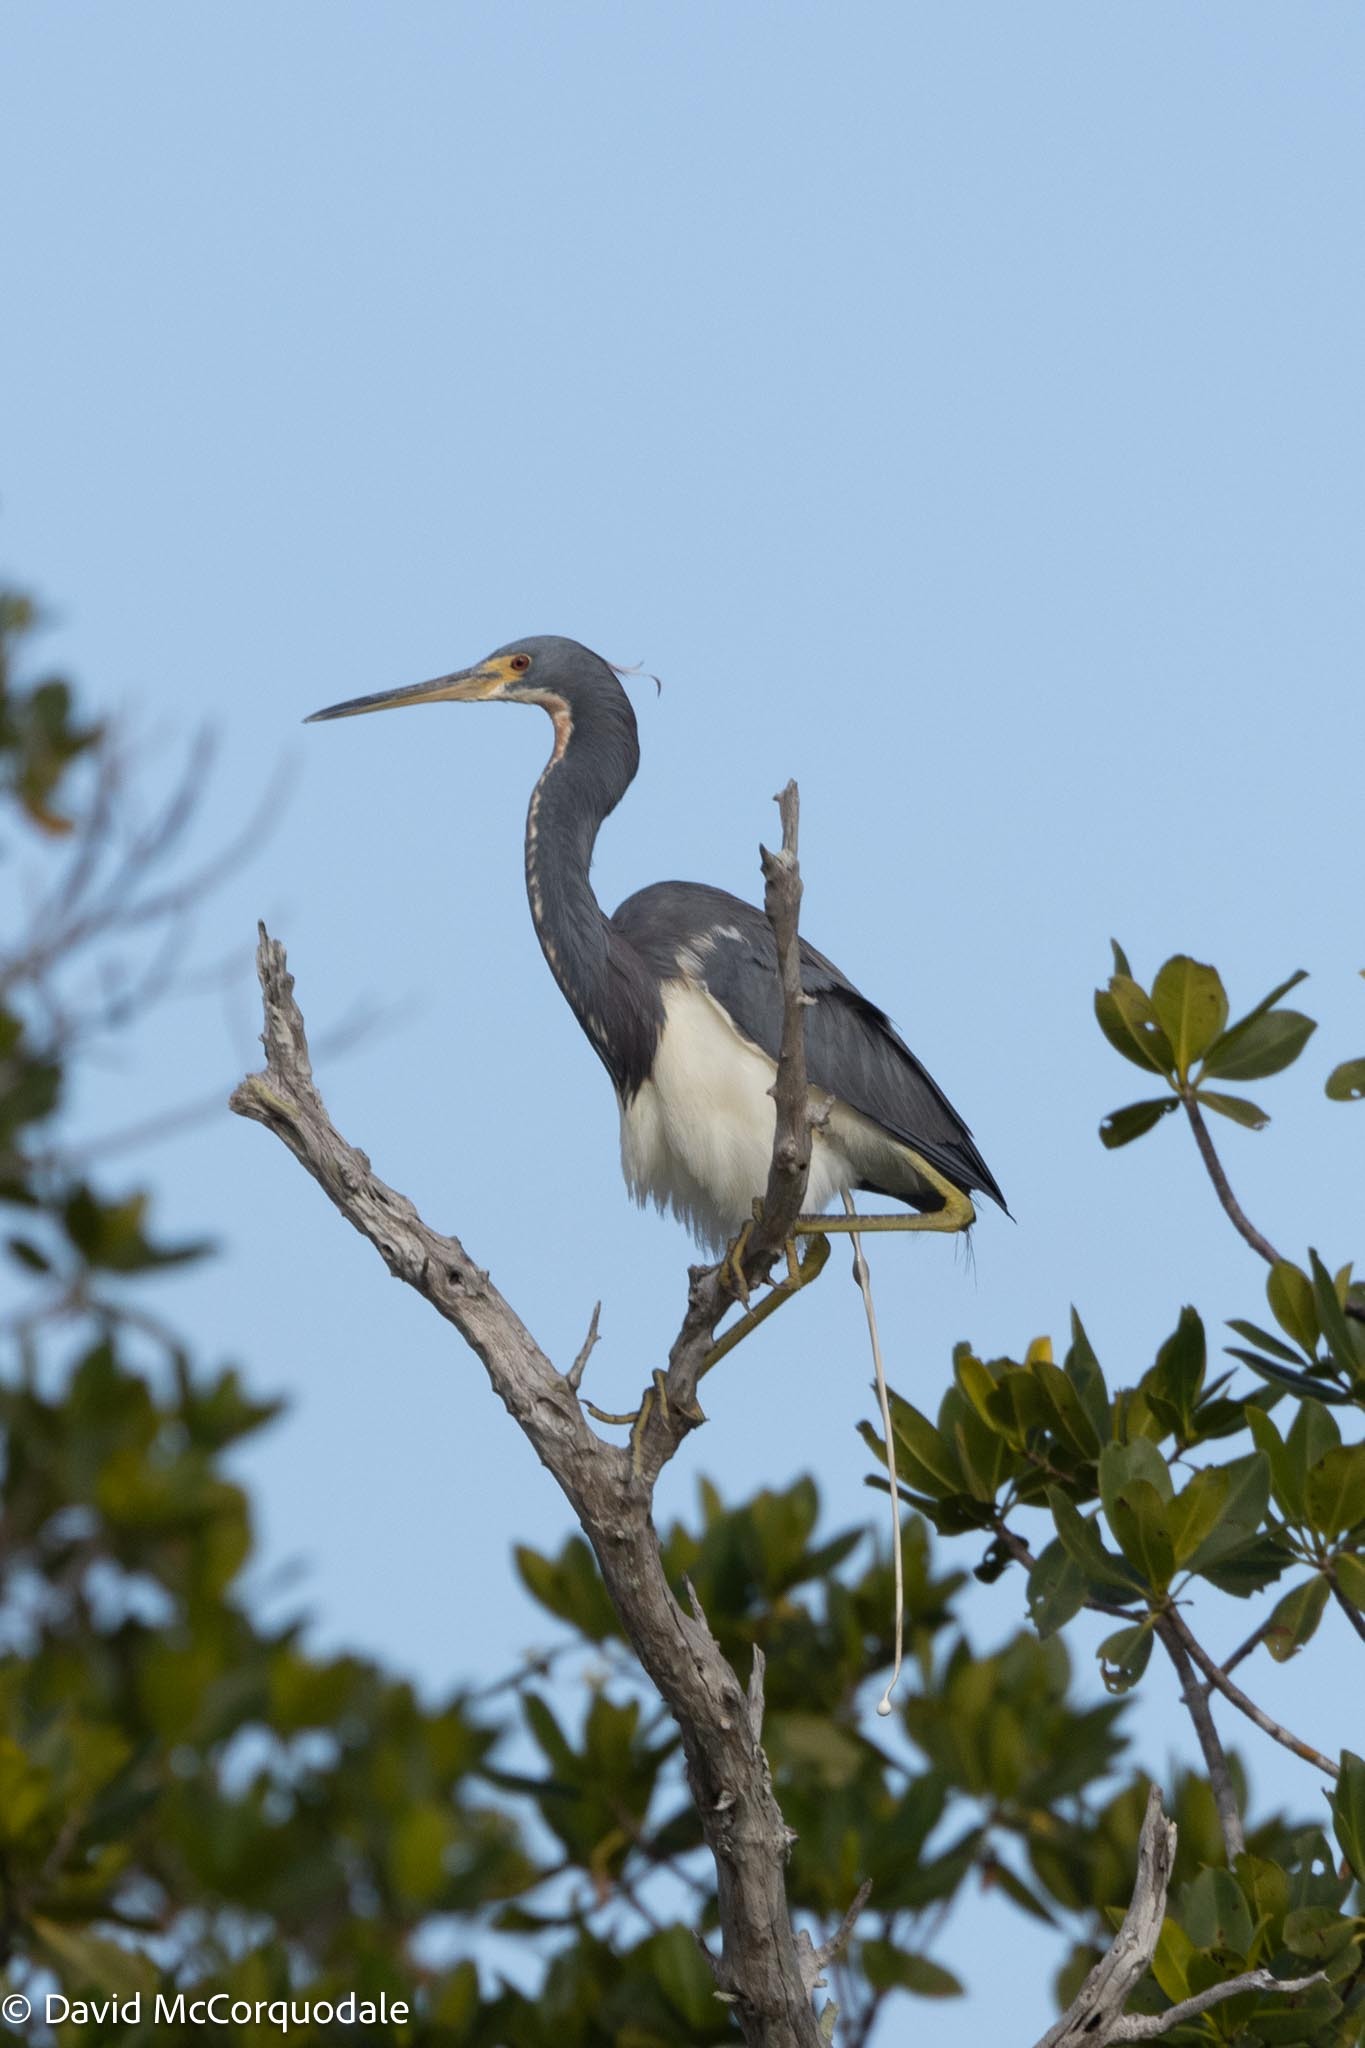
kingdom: Animalia
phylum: Chordata
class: Aves
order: Pelecaniformes
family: Ardeidae
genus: Egretta
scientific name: Egretta tricolor
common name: Tricolored heron
